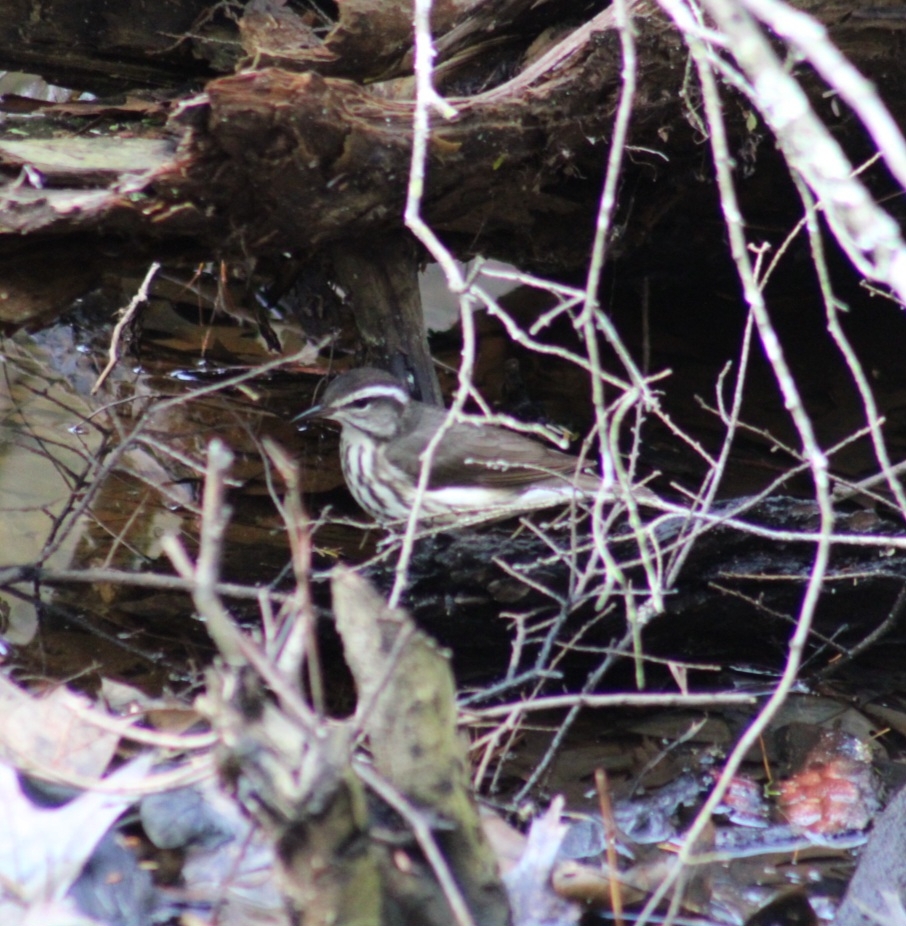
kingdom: Animalia
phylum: Chordata
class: Aves
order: Passeriformes
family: Parulidae
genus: Parkesia
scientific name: Parkesia motacilla
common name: Louisiana waterthrush
